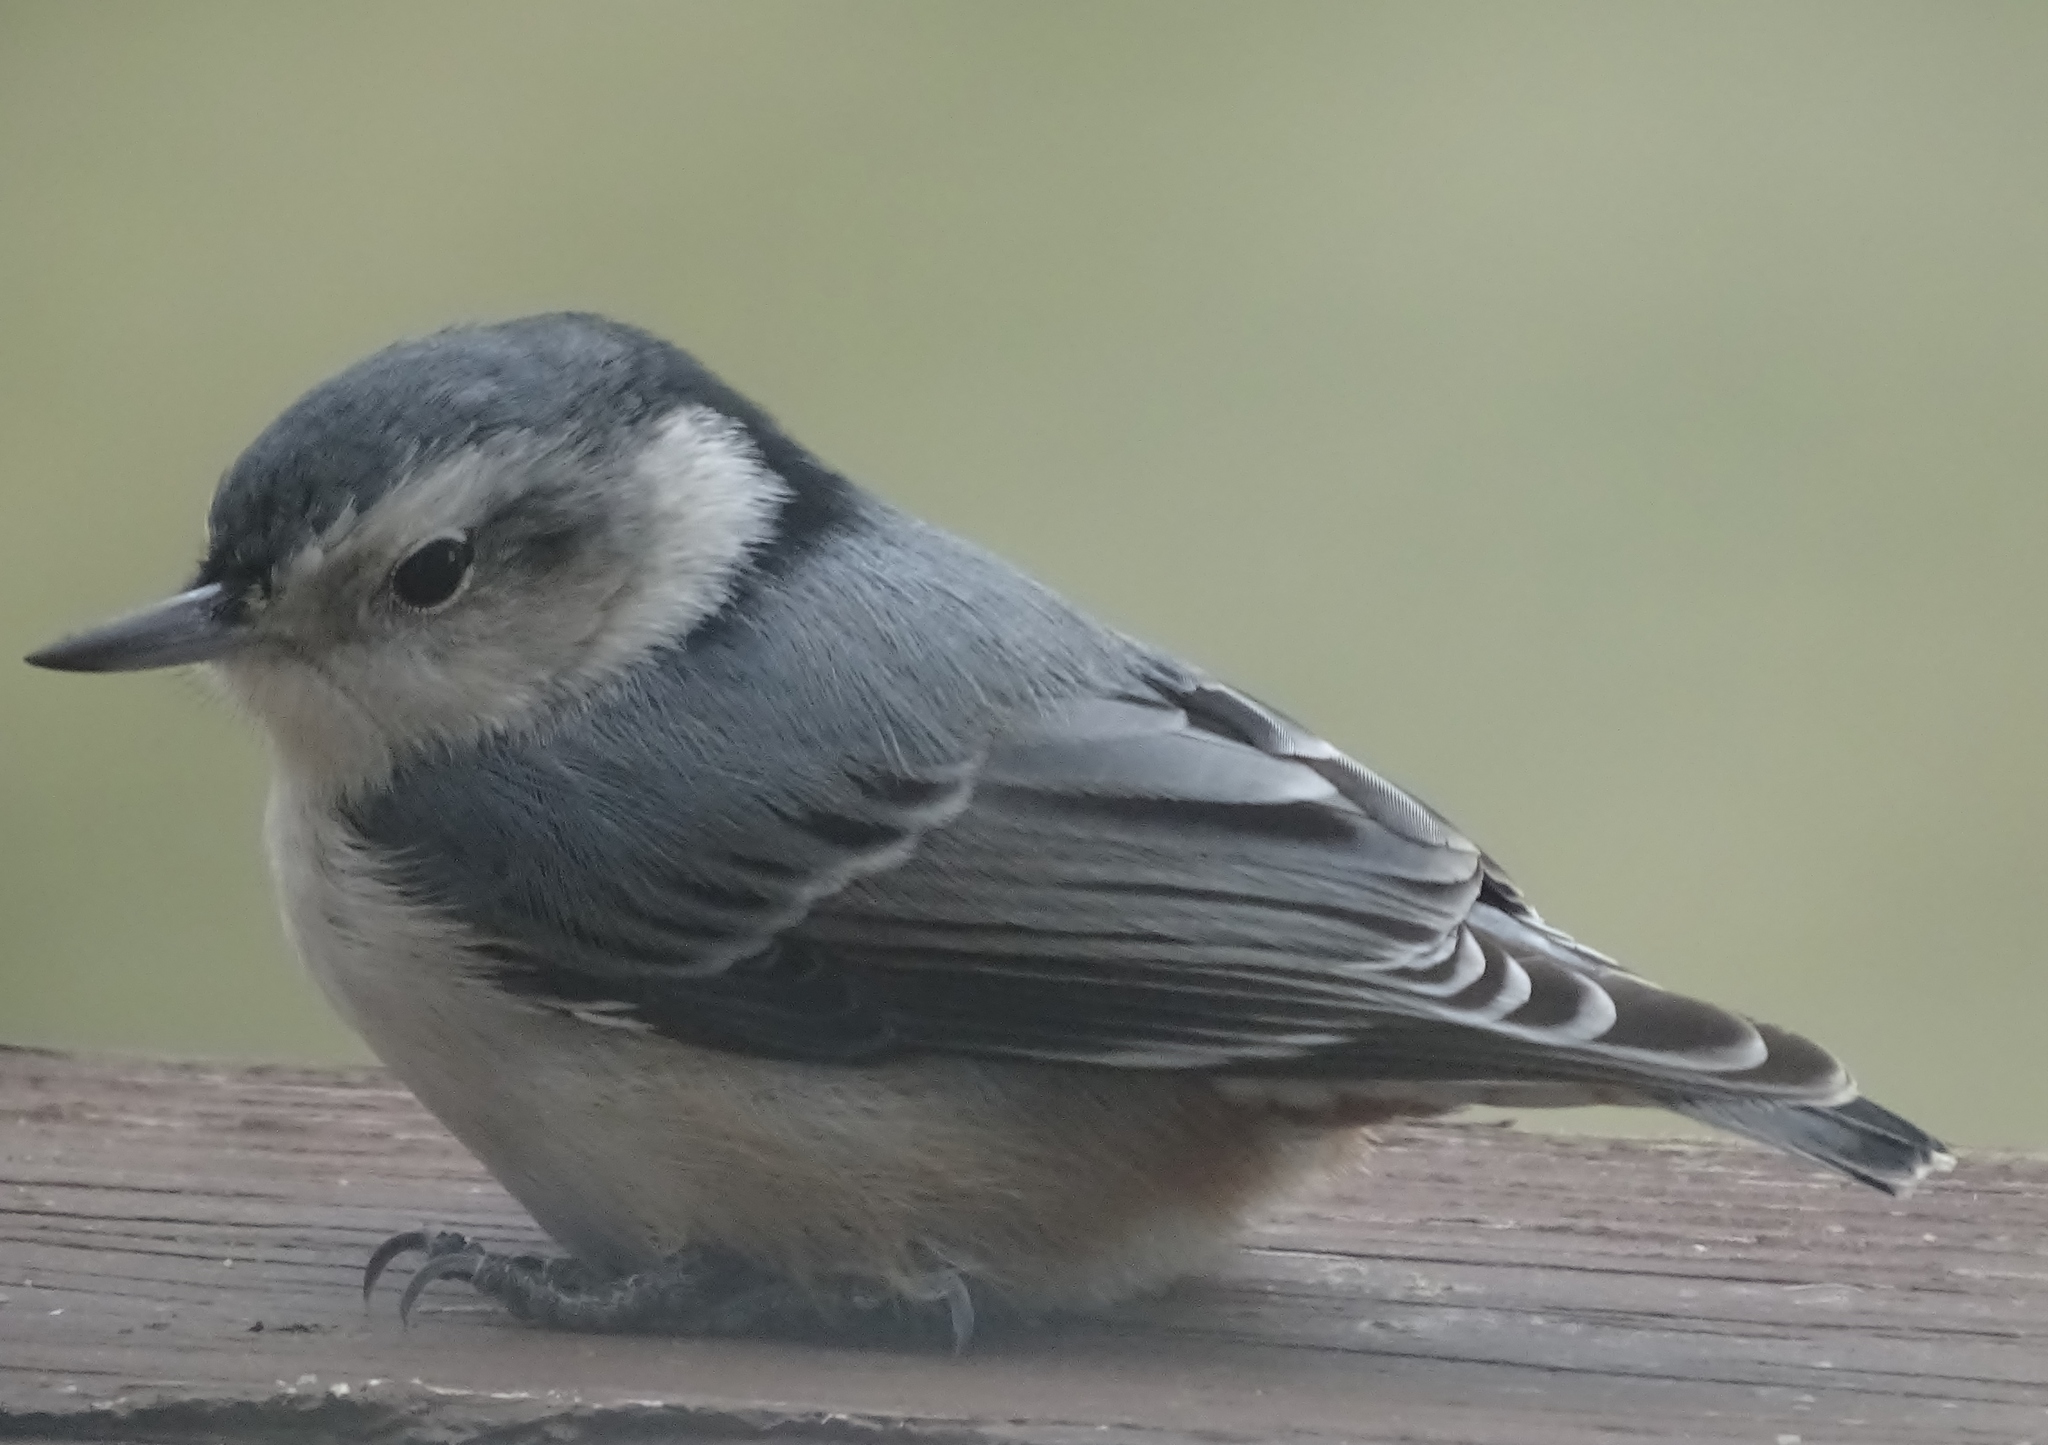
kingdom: Animalia
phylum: Chordata
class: Aves
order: Passeriformes
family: Sittidae
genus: Sitta
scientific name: Sitta carolinensis
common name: White-breasted nuthatch
